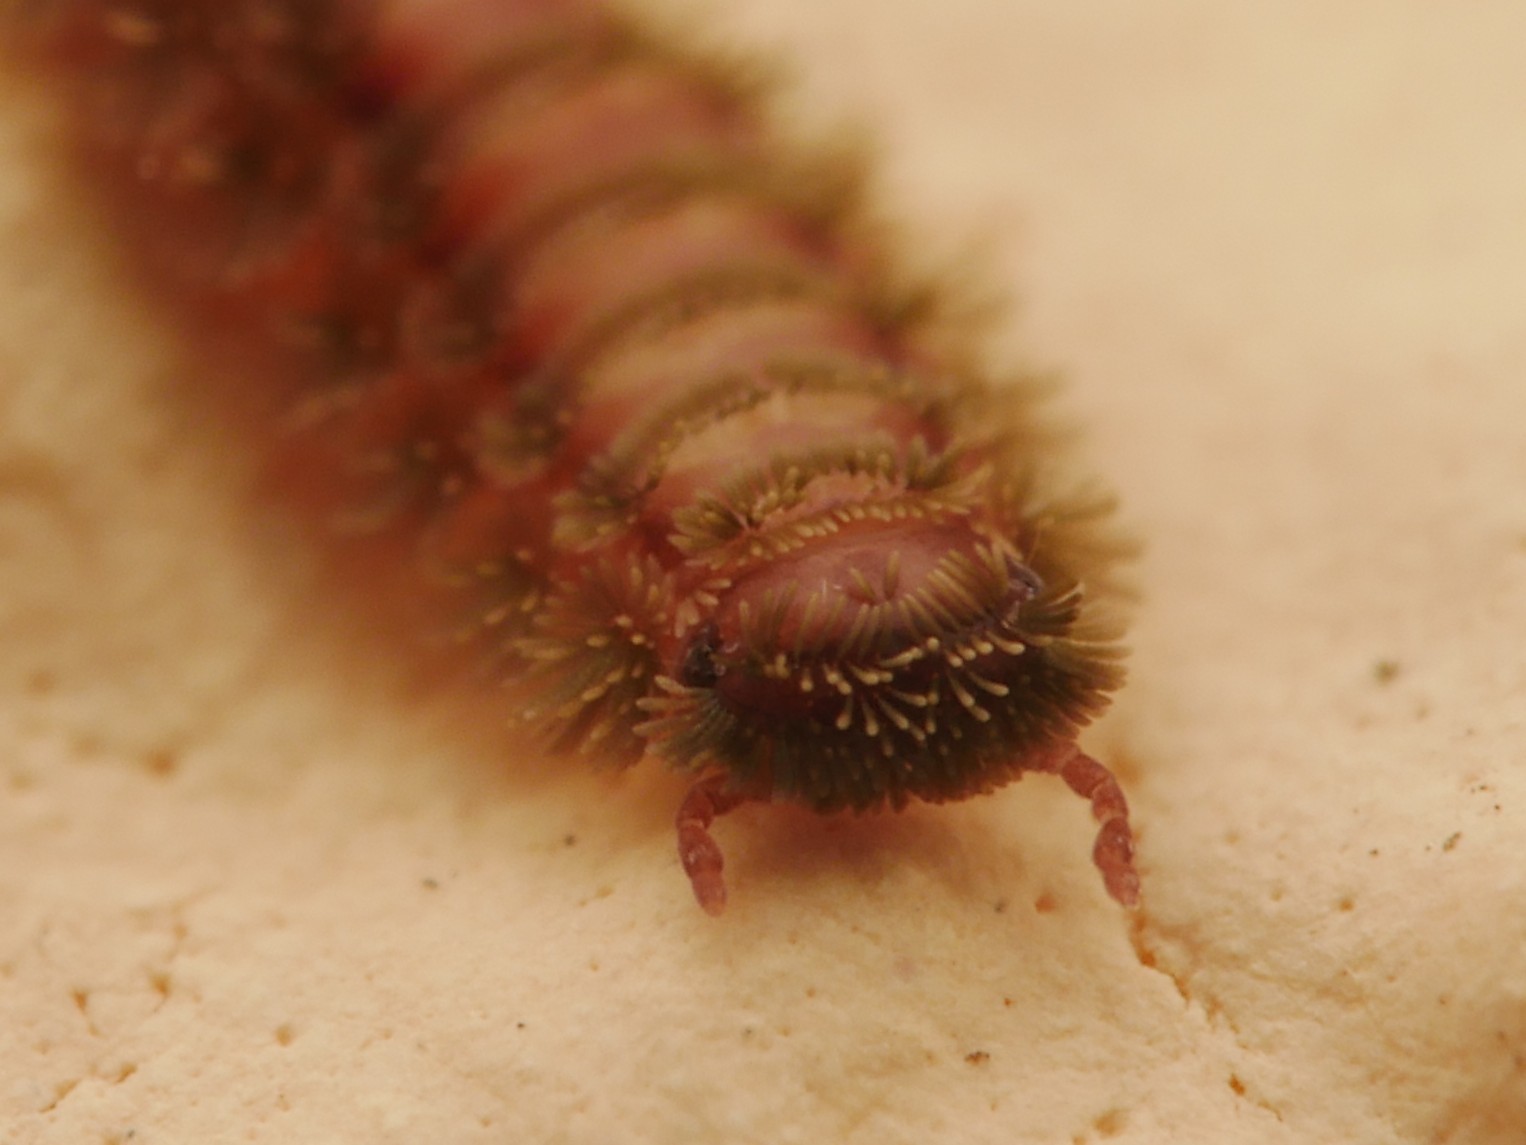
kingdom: Animalia
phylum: Arthropoda
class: Diplopoda
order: Polyxenida
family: Polyxenidae
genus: Polyxenus
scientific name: Polyxenus lagurus
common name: Bristly millipede
